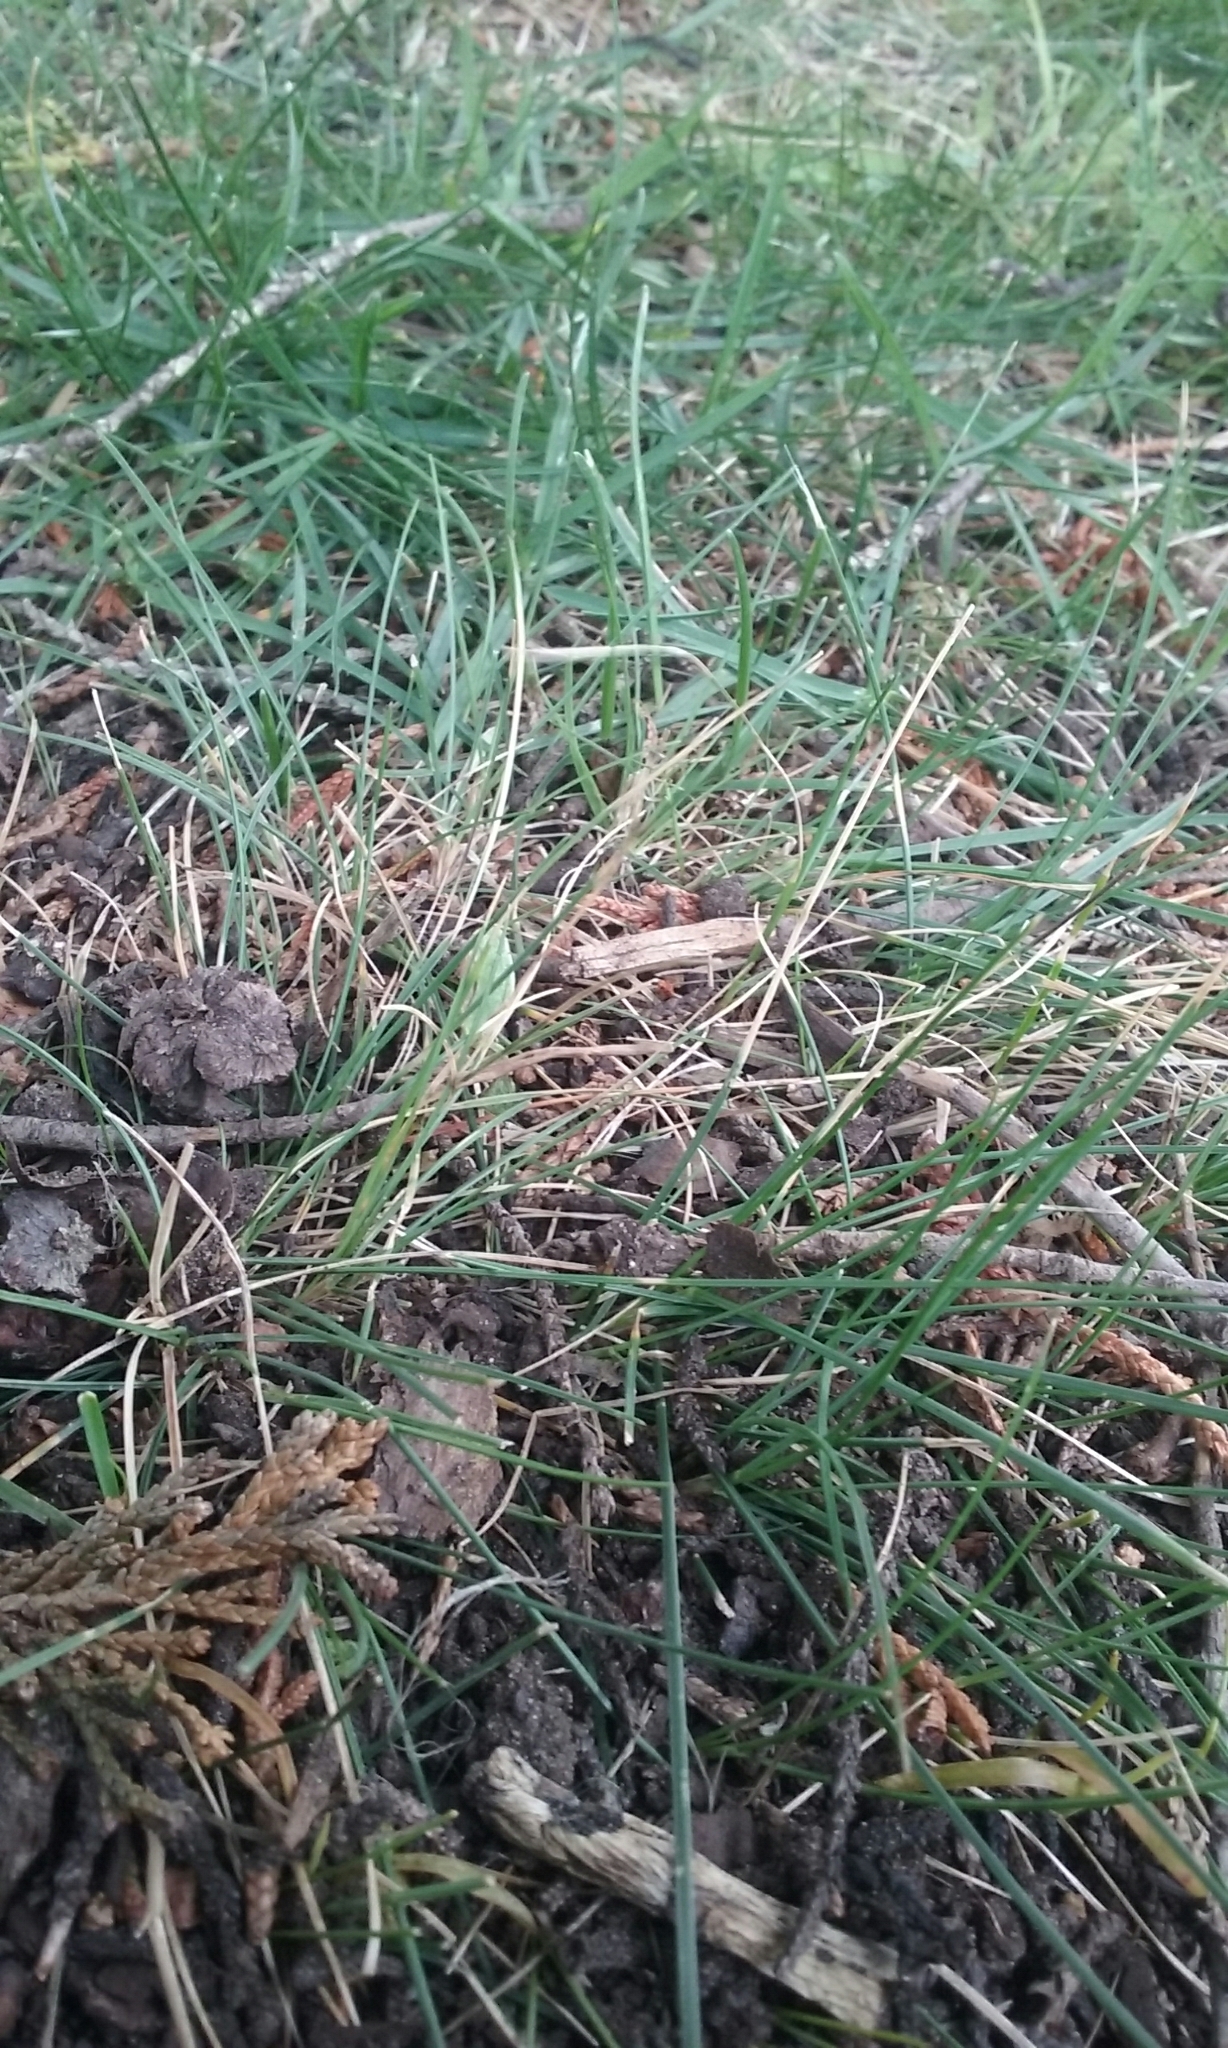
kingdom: Plantae
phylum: Tracheophyta
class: Liliopsida
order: Poales
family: Poaceae
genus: Festuca
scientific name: Festuca rubra
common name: Red fescue
